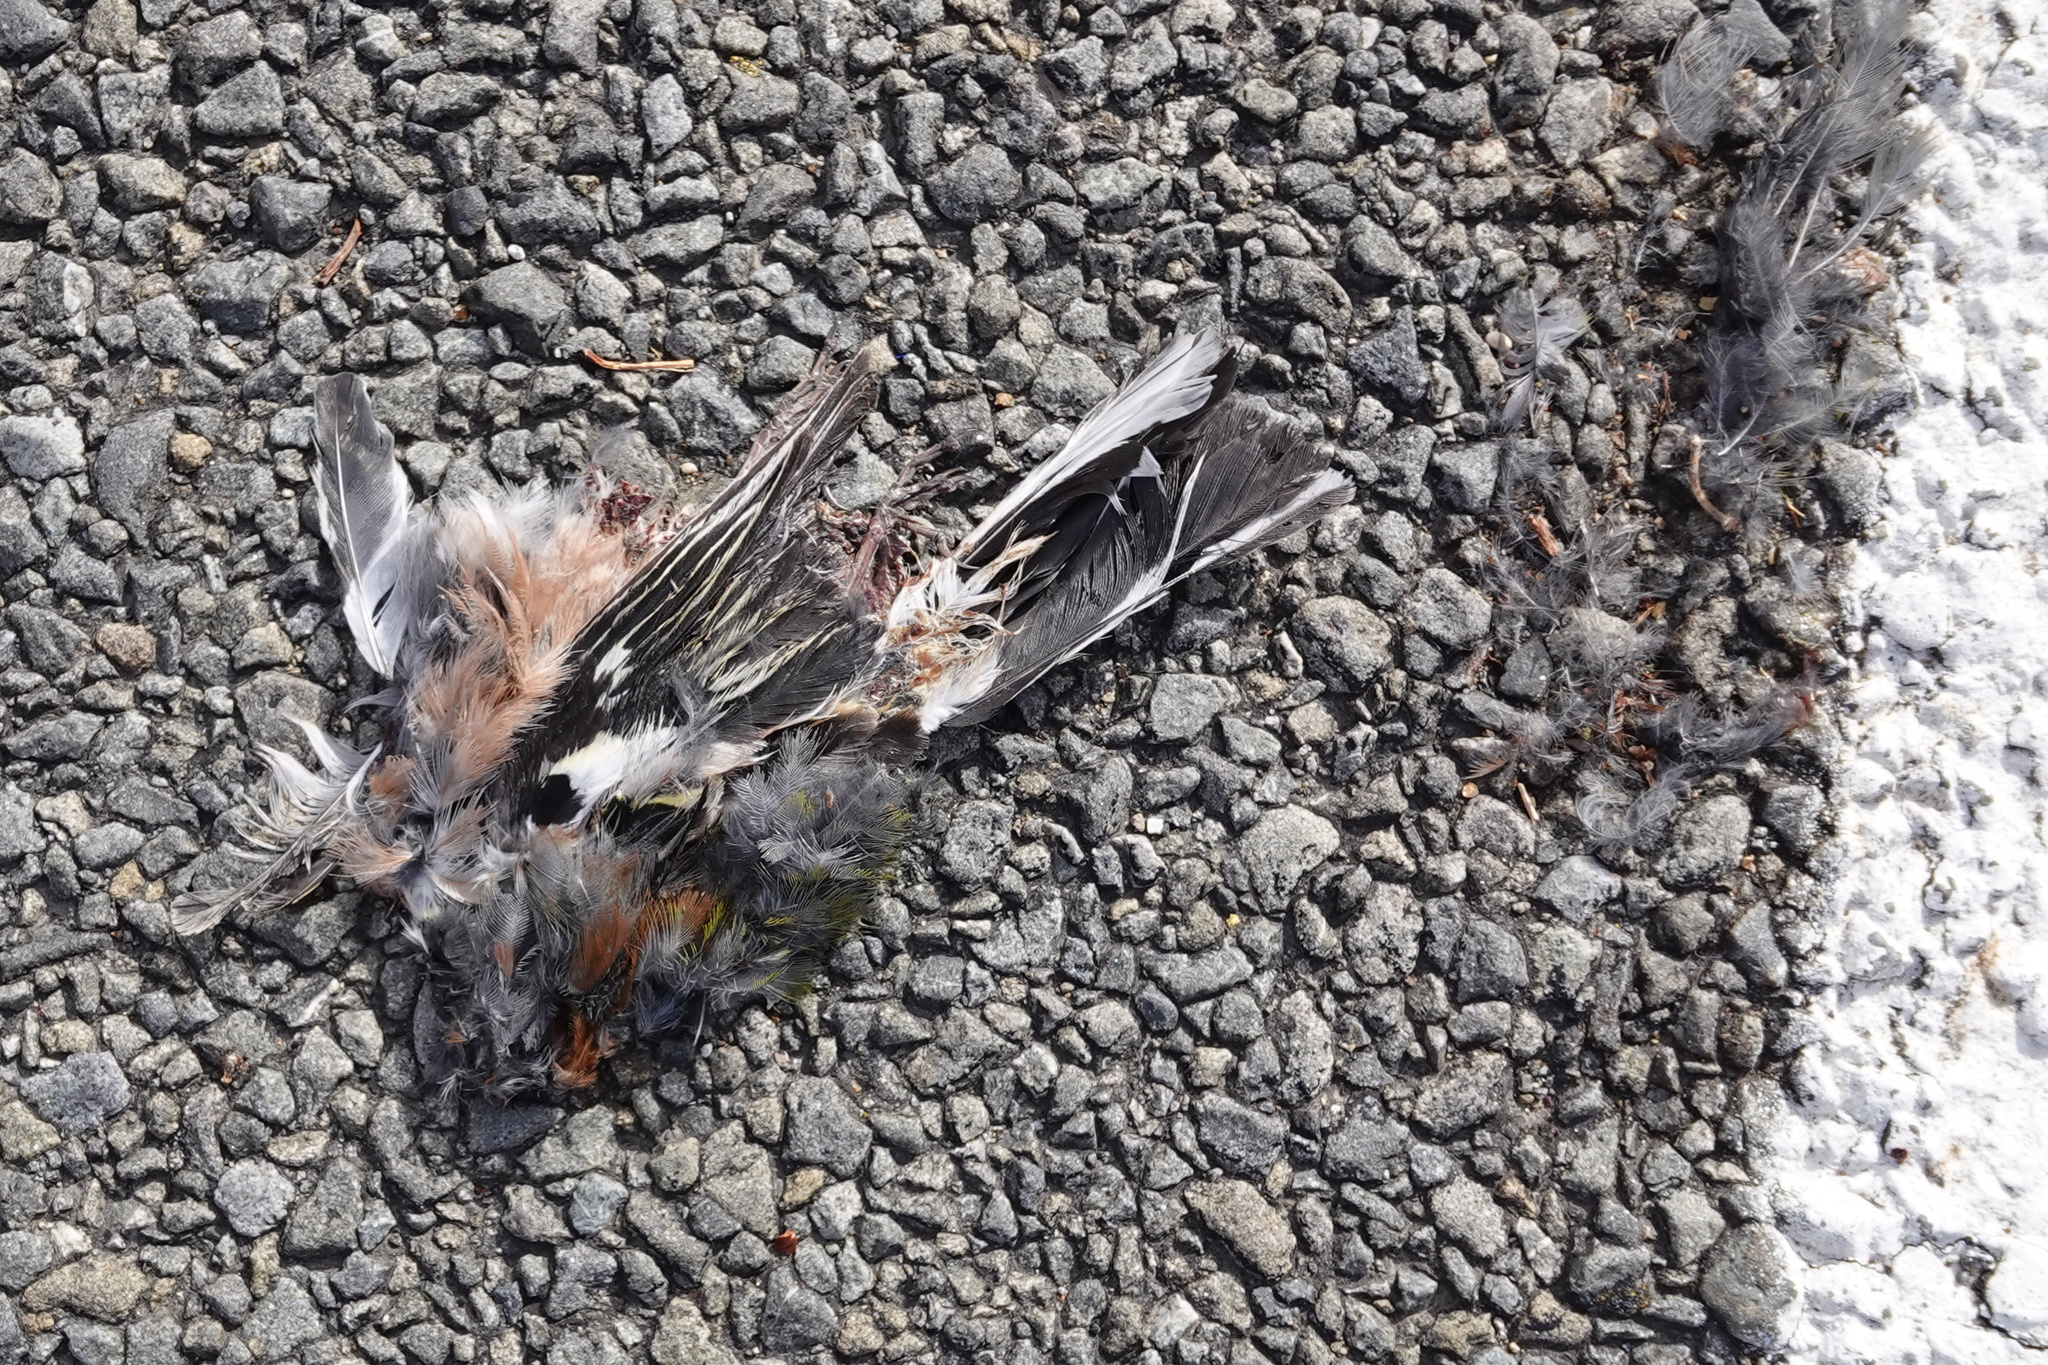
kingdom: Animalia
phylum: Chordata
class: Aves
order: Passeriformes
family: Fringillidae
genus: Fringilla
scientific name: Fringilla coelebs
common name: Common chaffinch
